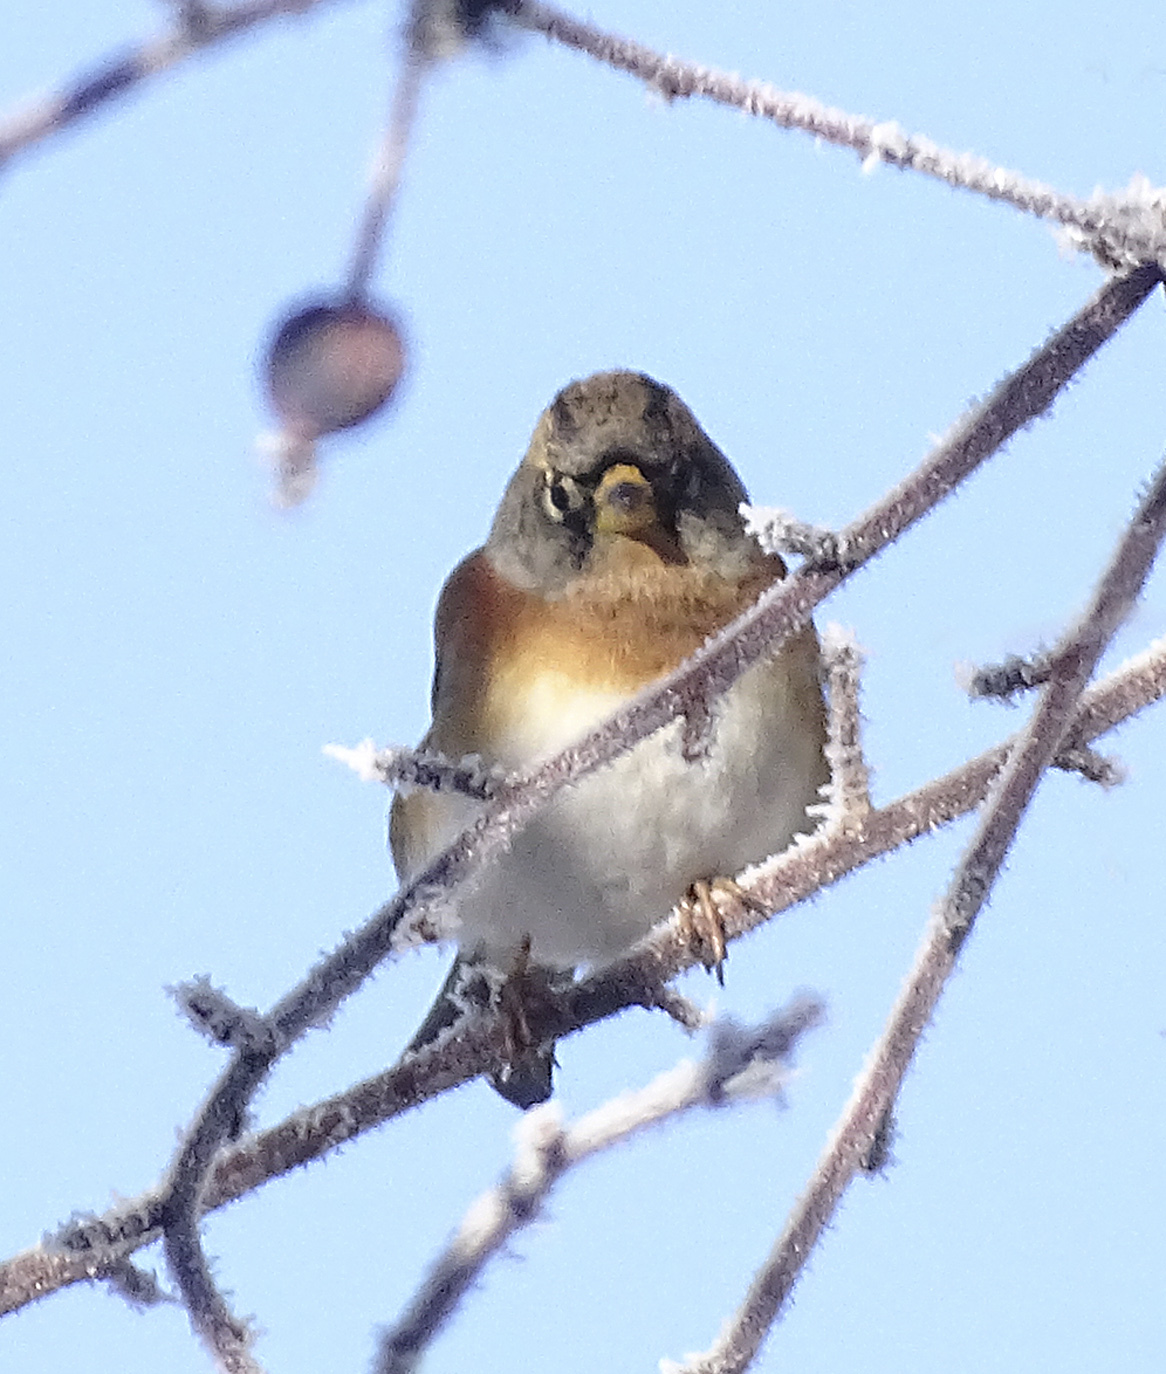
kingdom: Animalia
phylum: Chordata
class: Aves
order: Passeriformes
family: Fringillidae
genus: Fringilla
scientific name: Fringilla montifringilla
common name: Brambling
